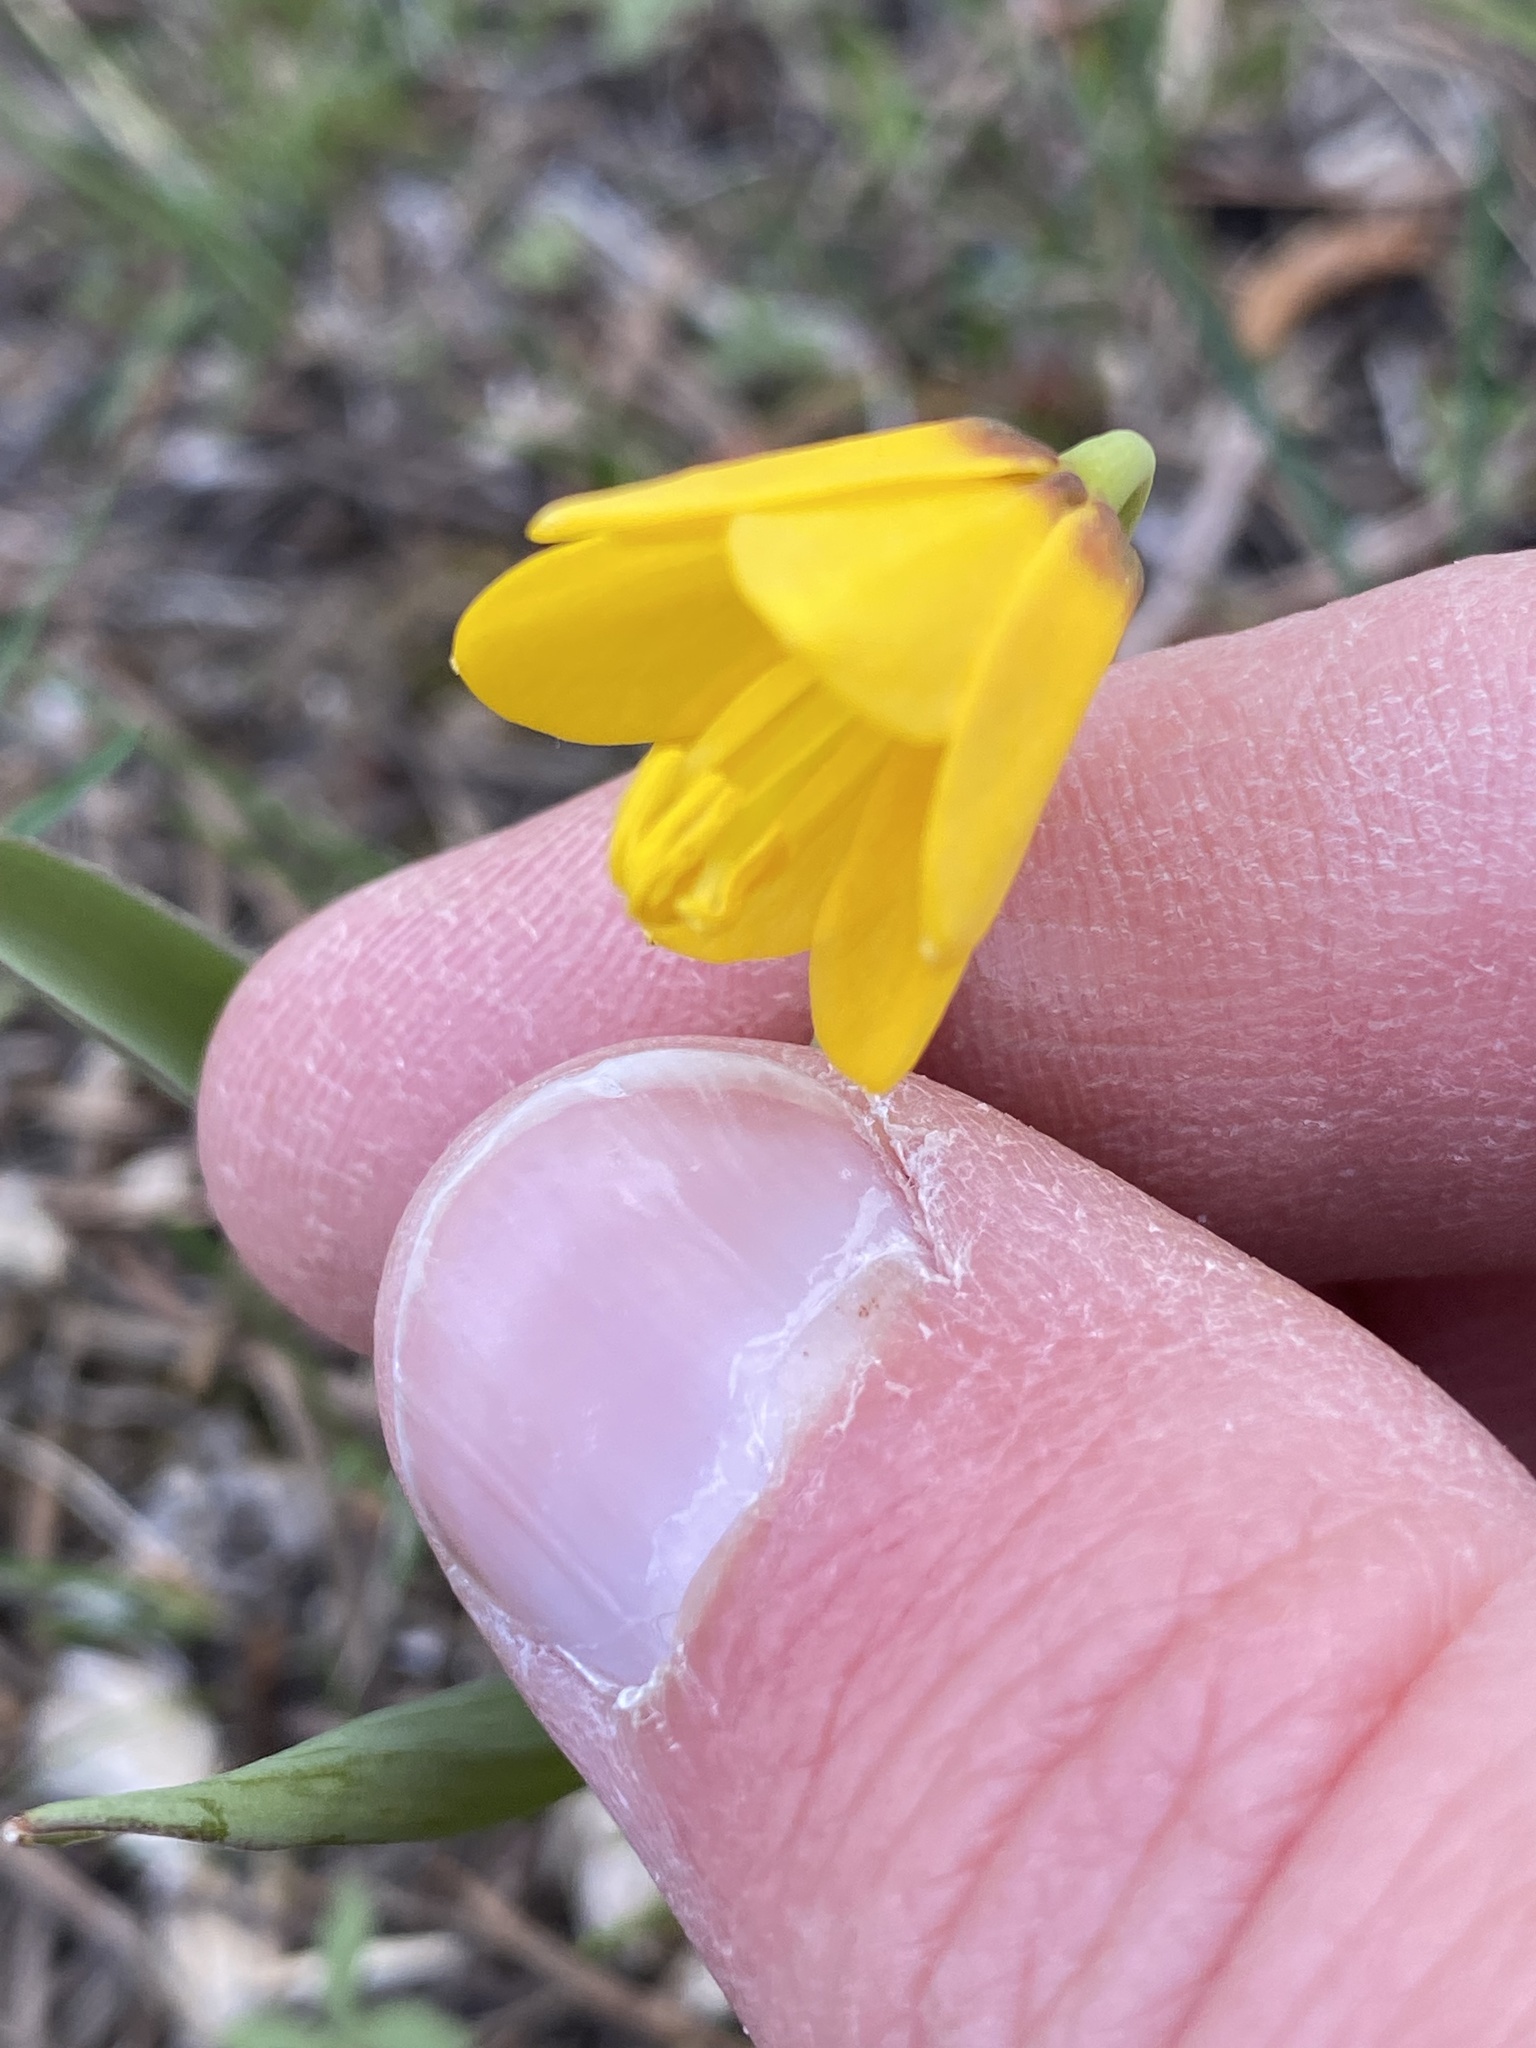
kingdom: Plantae
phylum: Tracheophyta
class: Liliopsida
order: Liliales
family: Liliaceae
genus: Fritillaria
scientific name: Fritillaria pudica
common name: Yellow fritillary
